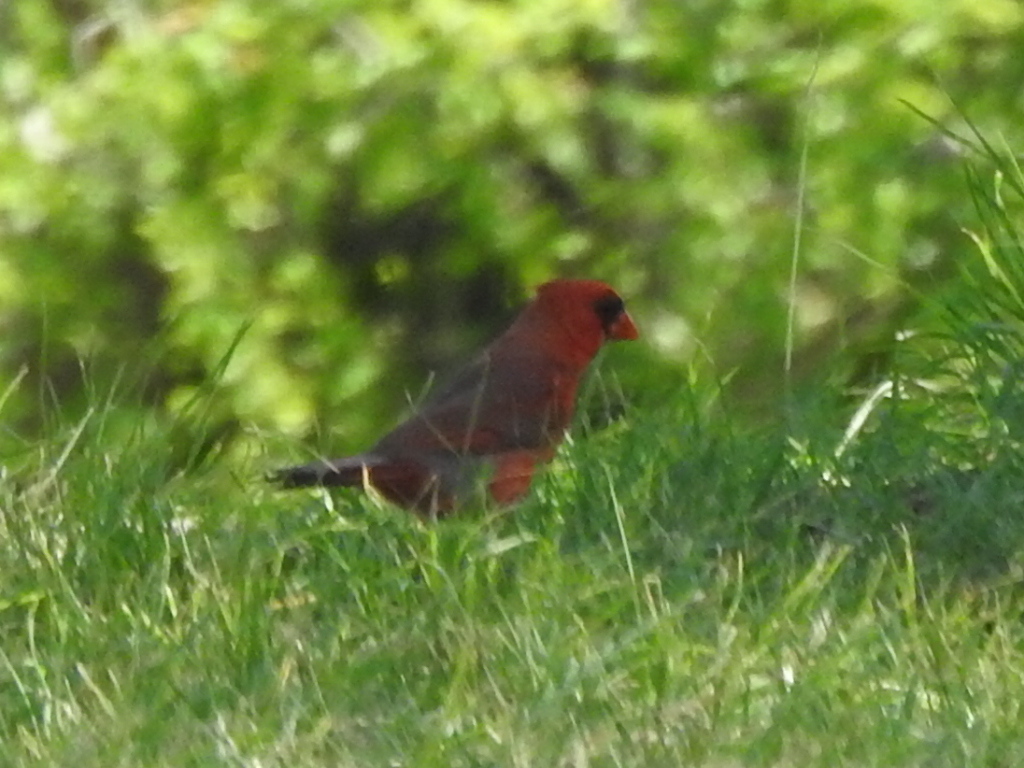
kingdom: Animalia
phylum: Chordata
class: Aves
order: Passeriformes
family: Cardinalidae
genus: Cardinalis
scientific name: Cardinalis cardinalis
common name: Northern cardinal
